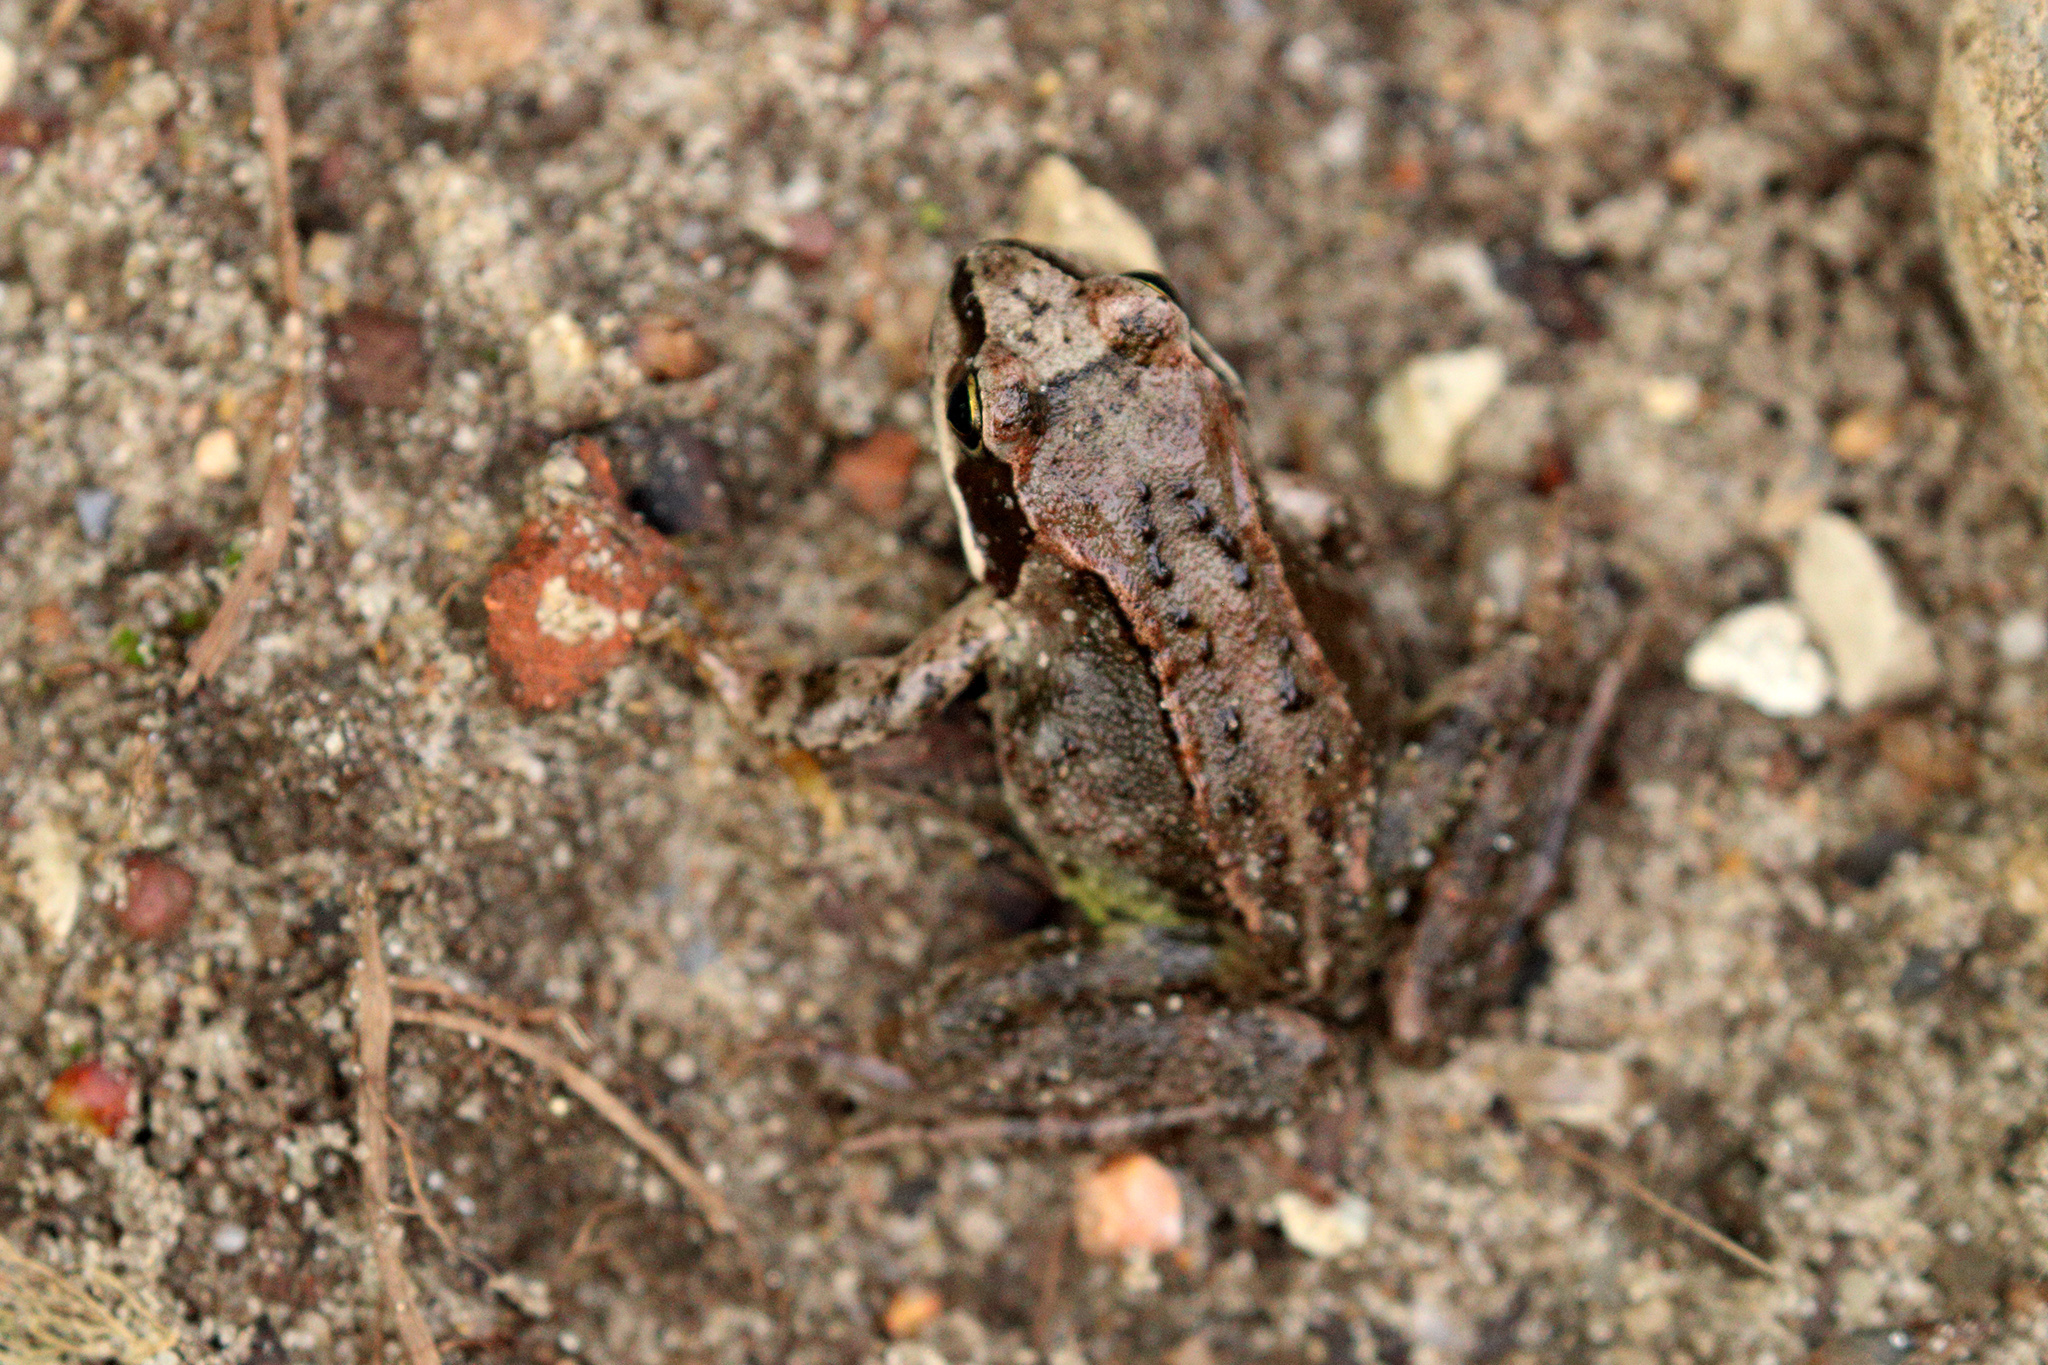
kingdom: Animalia
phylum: Chordata
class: Amphibia
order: Anura
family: Ranidae
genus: Rana
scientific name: Rana temporaria
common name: Common frog
